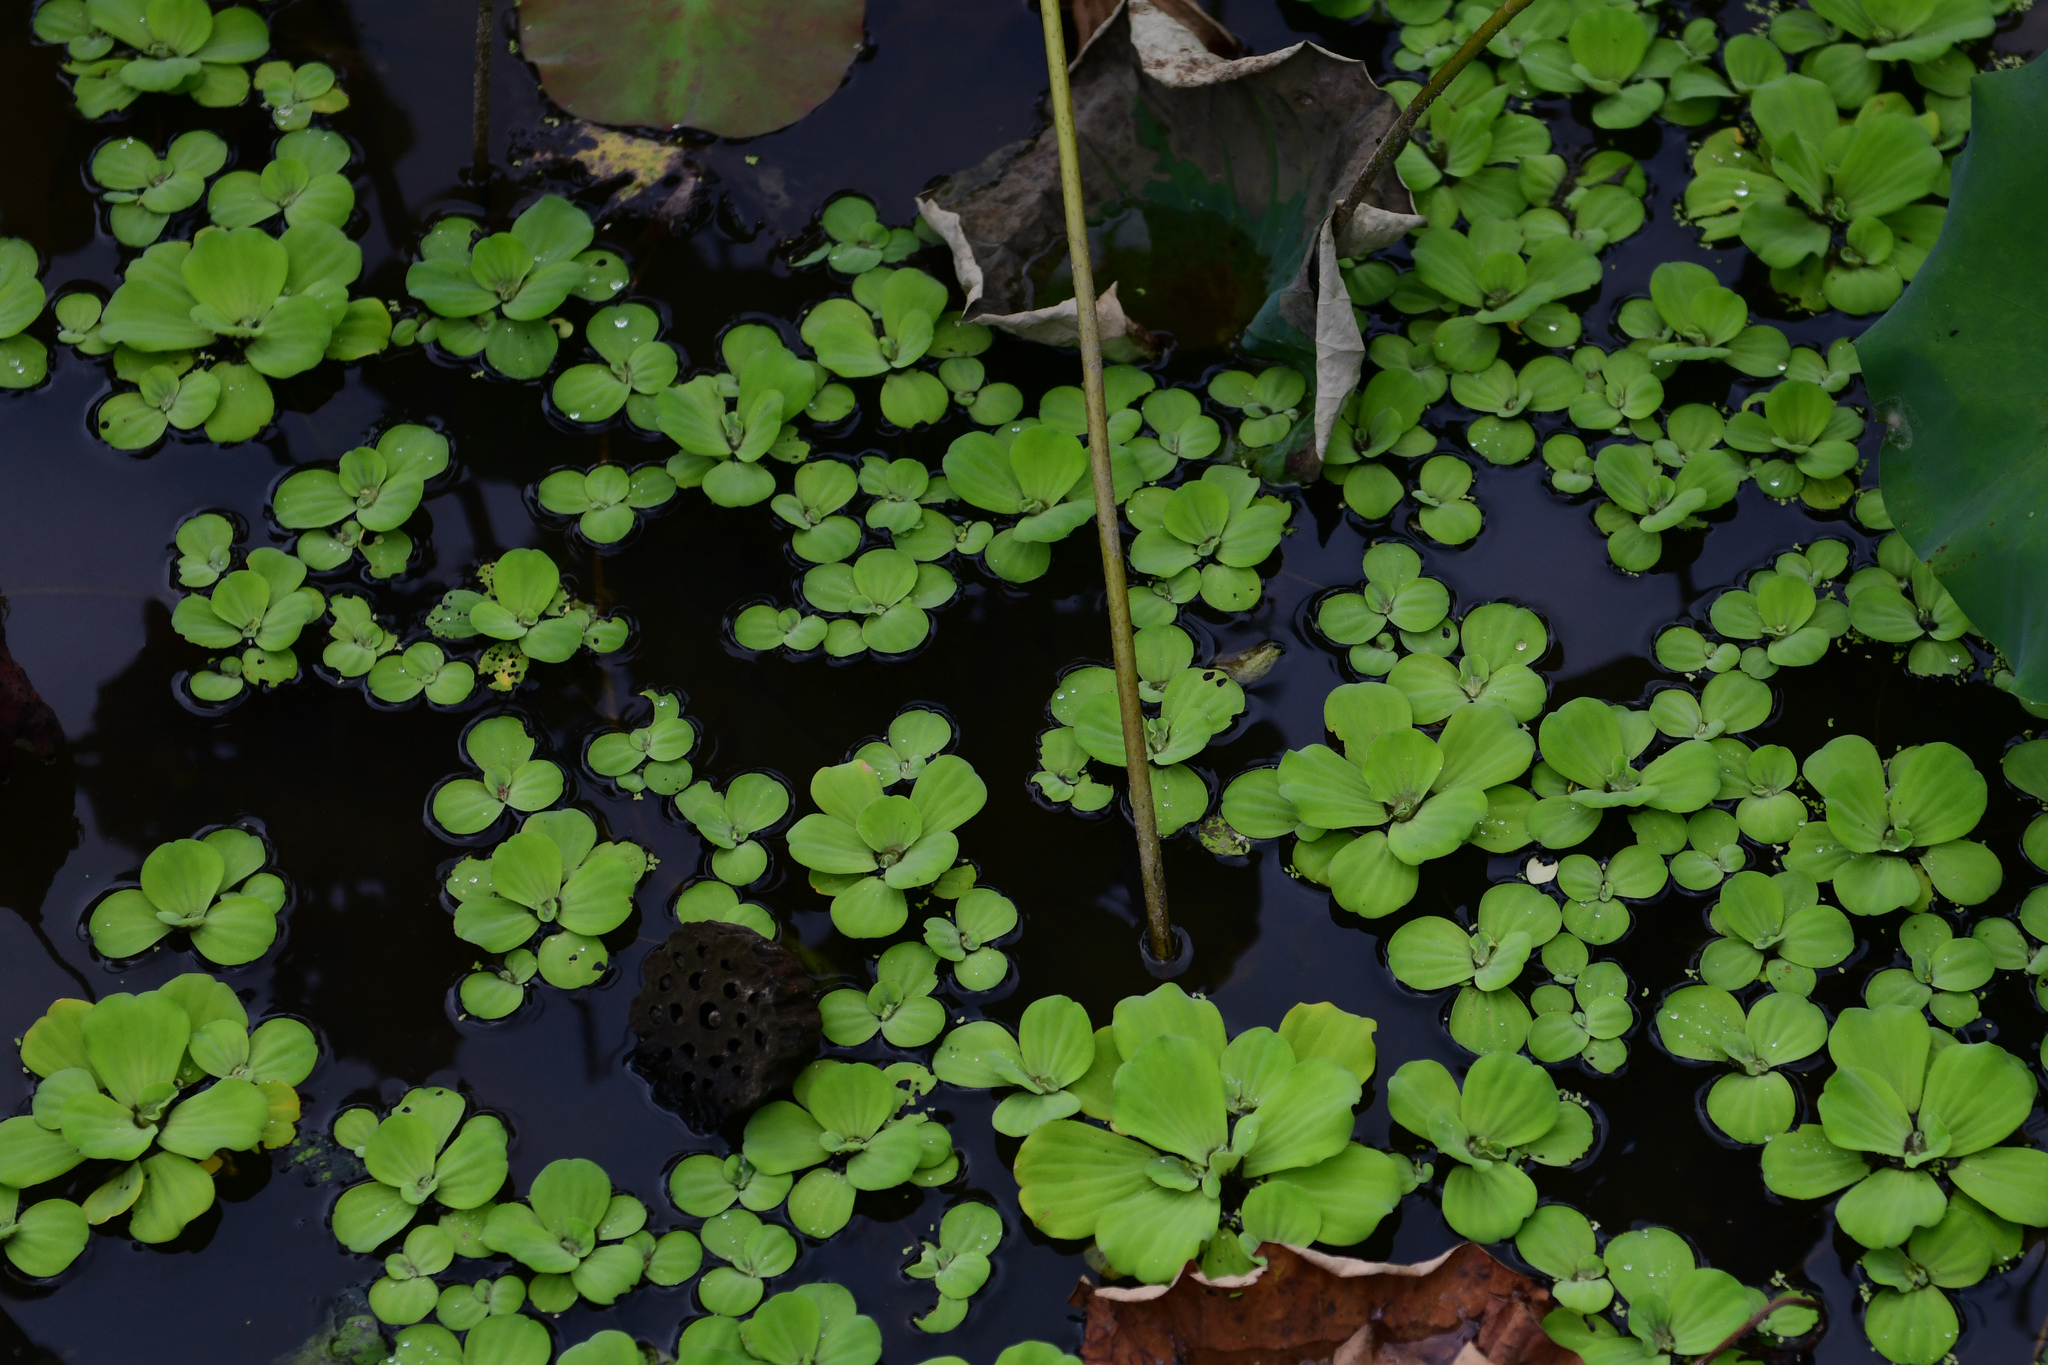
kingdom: Plantae
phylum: Tracheophyta
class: Liliopsida
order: Alismatales
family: Araceae
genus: Pistia
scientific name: Pistia stratiotes
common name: Water lettuce
